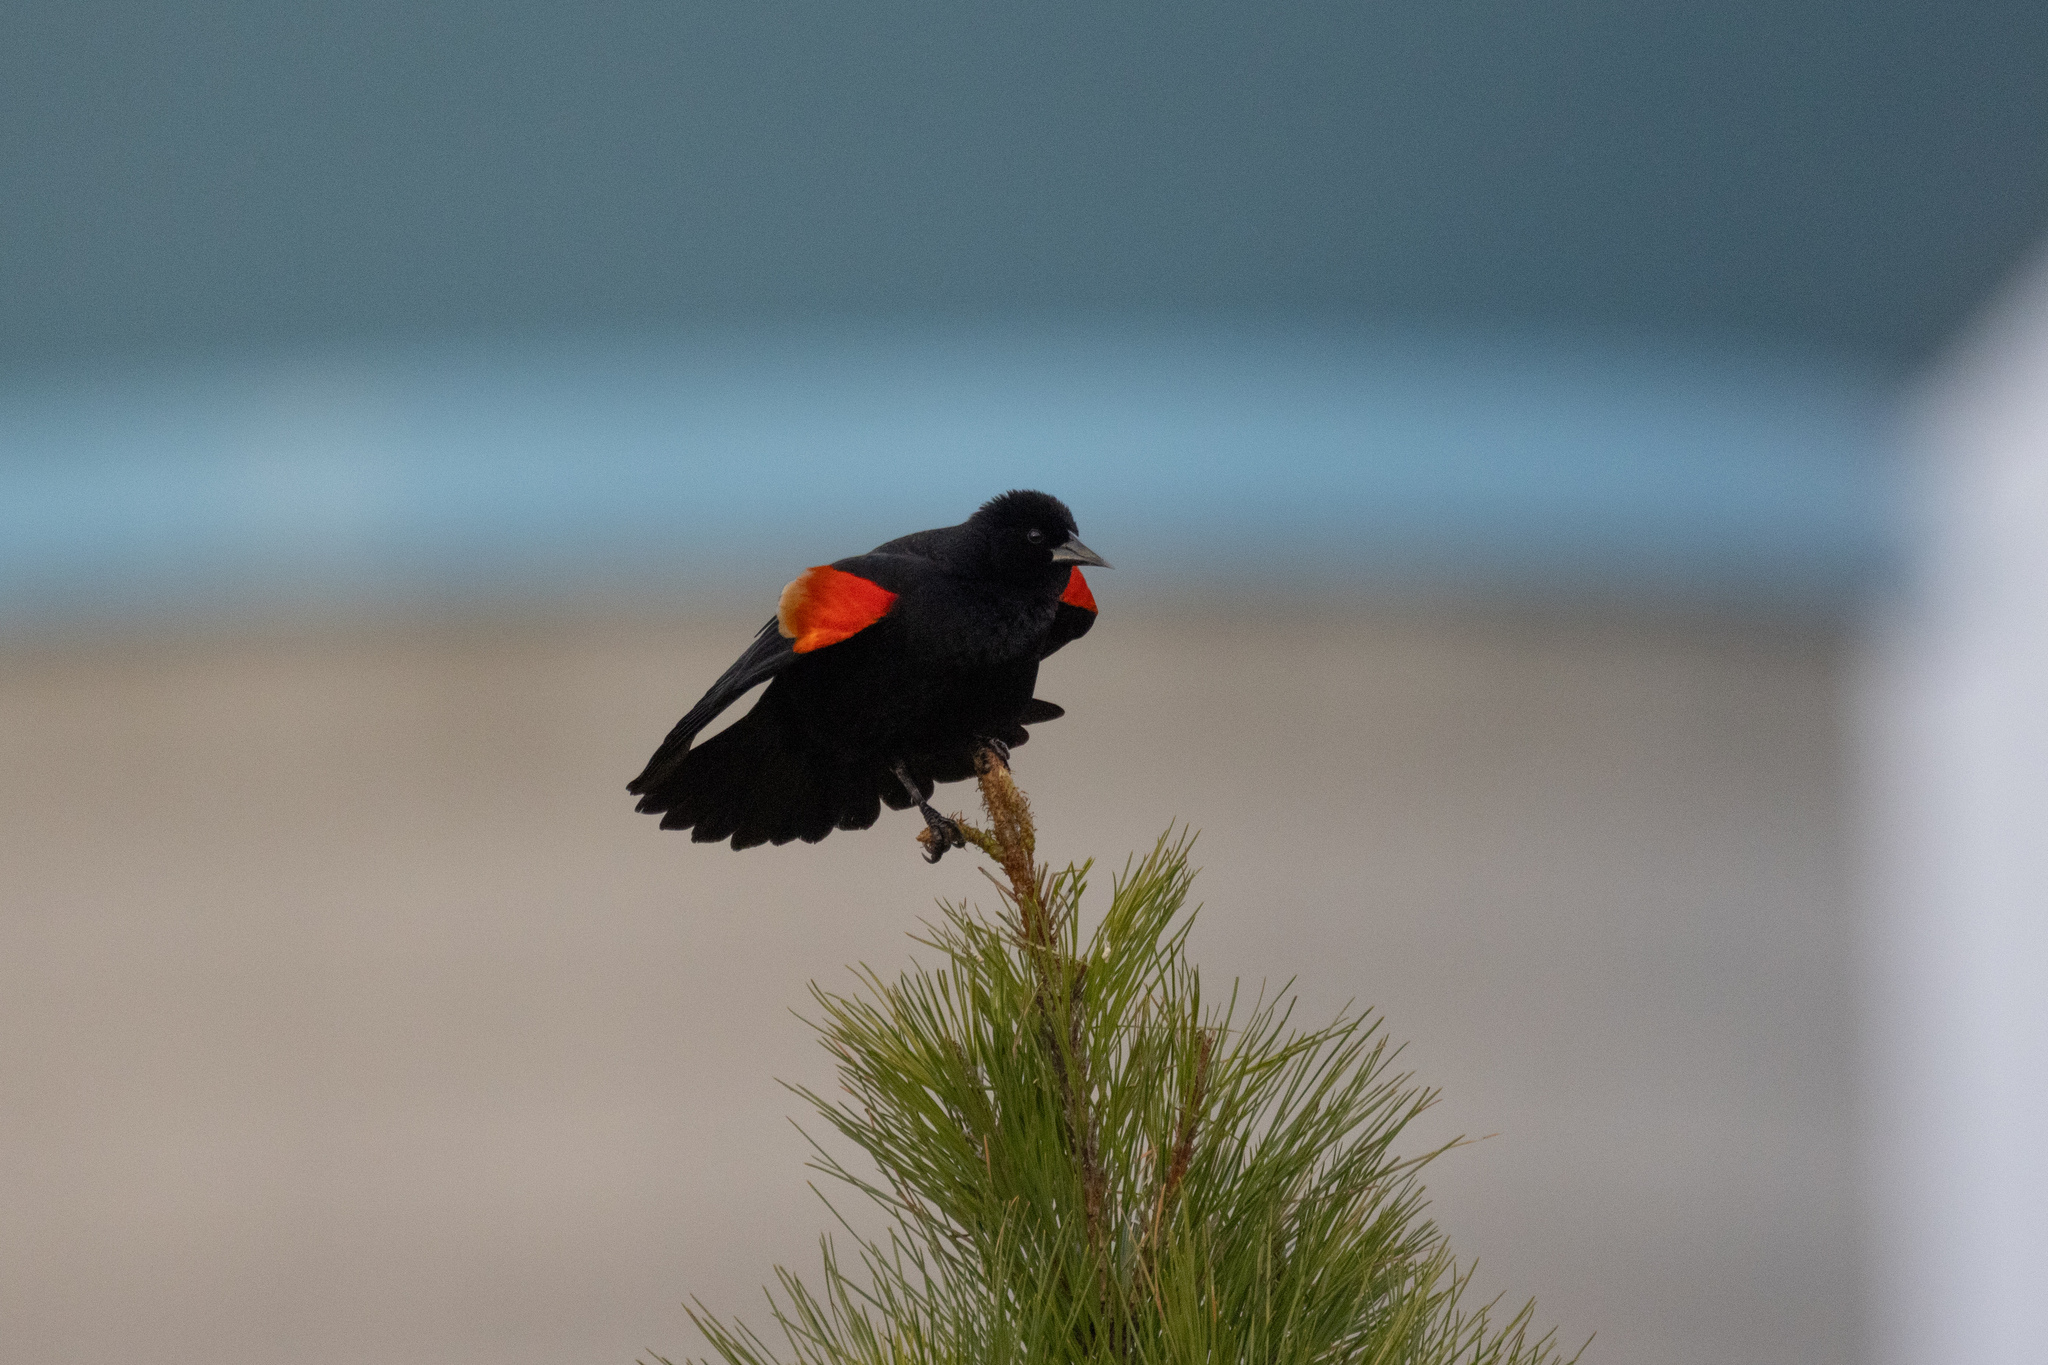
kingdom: Animalia
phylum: Chordata
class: Aves
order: Passeriformes
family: Icteridae
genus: Agelaius
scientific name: Agelaius phoeniceus
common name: Red-winged blackbird
